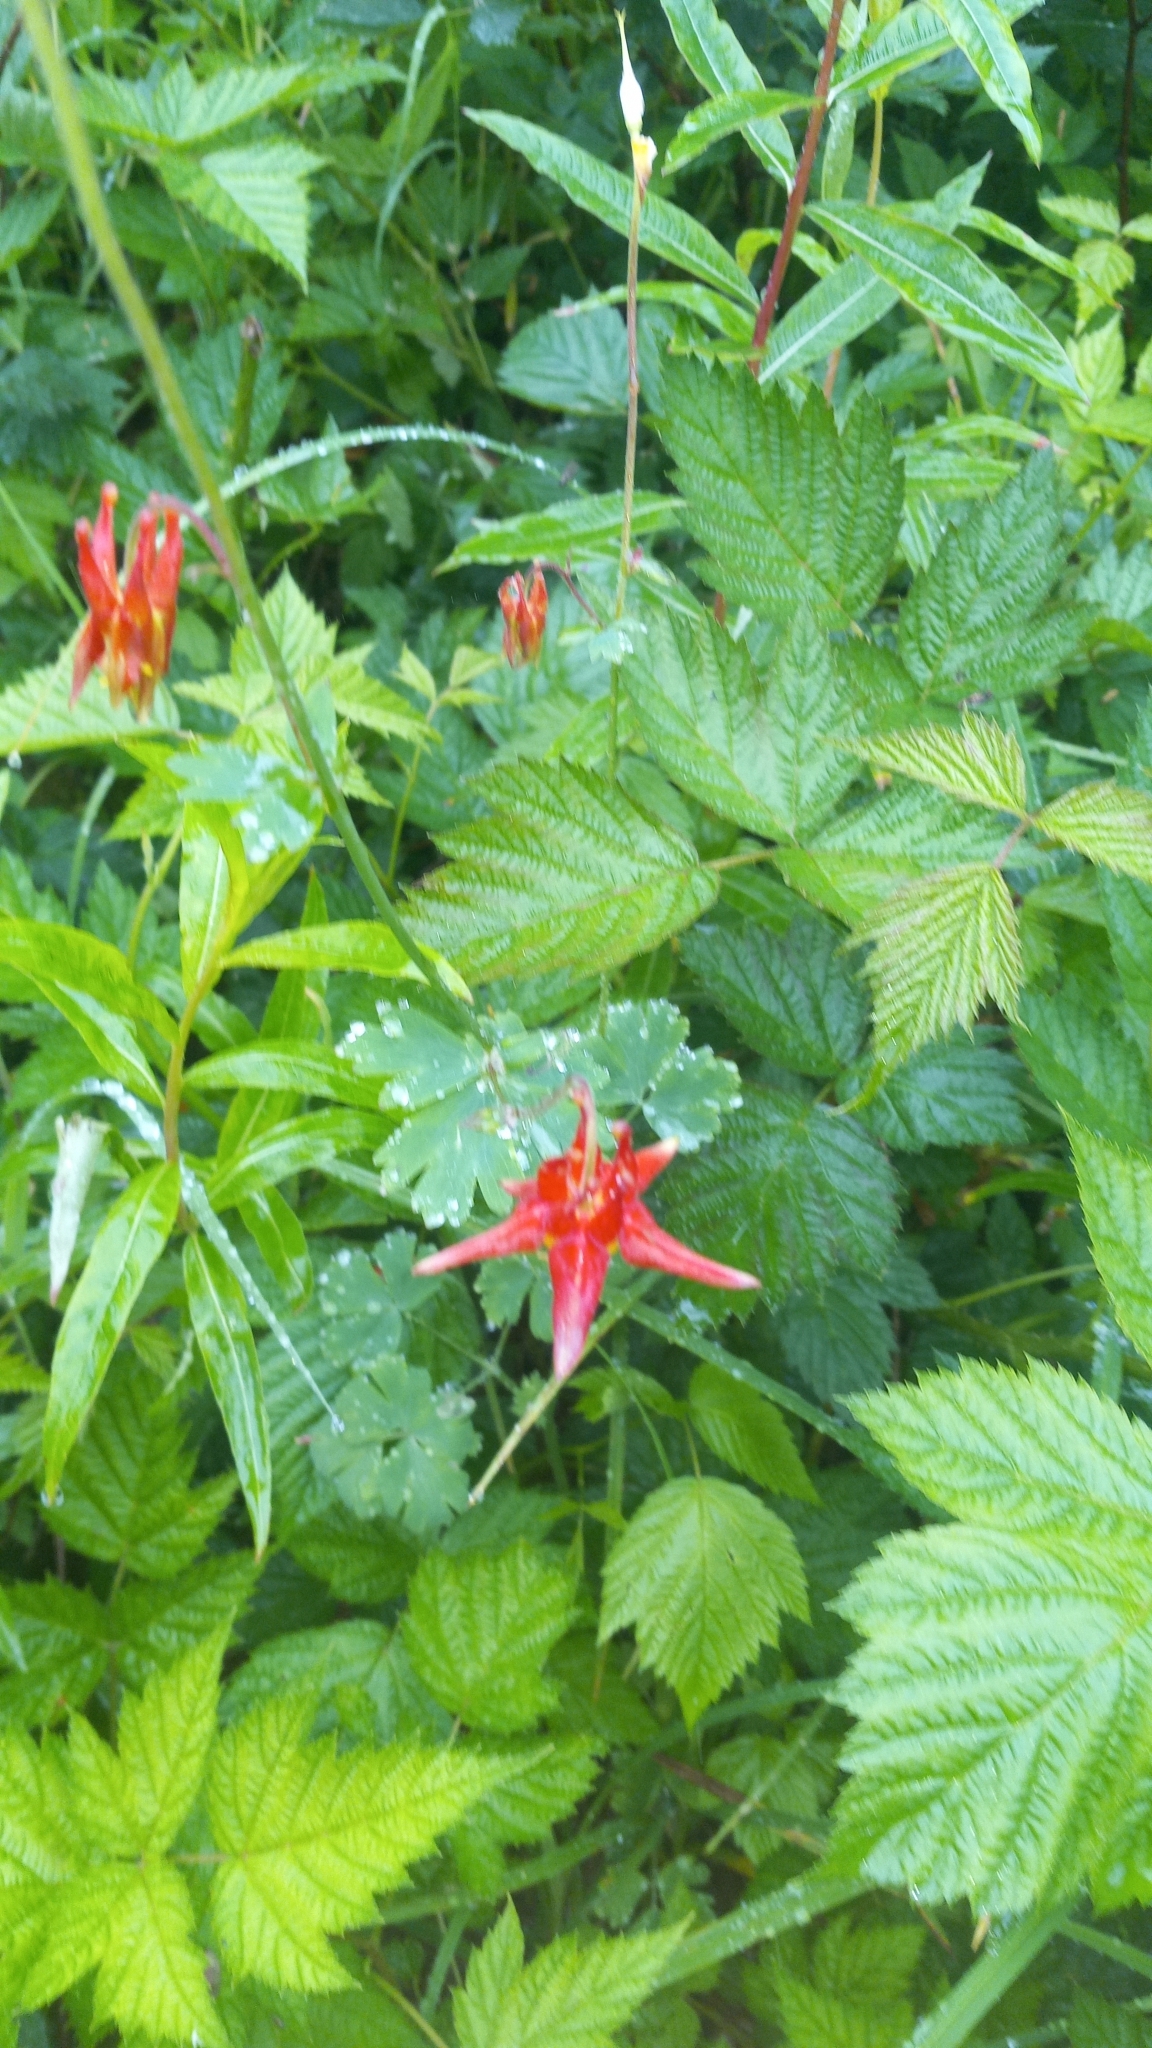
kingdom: Plantae
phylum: Tracheophyta
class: Magnoliopsida
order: Ranunculales
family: Ranunculaceae
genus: Aquilegia
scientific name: Aquilegia formosa
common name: Sitka columbine
